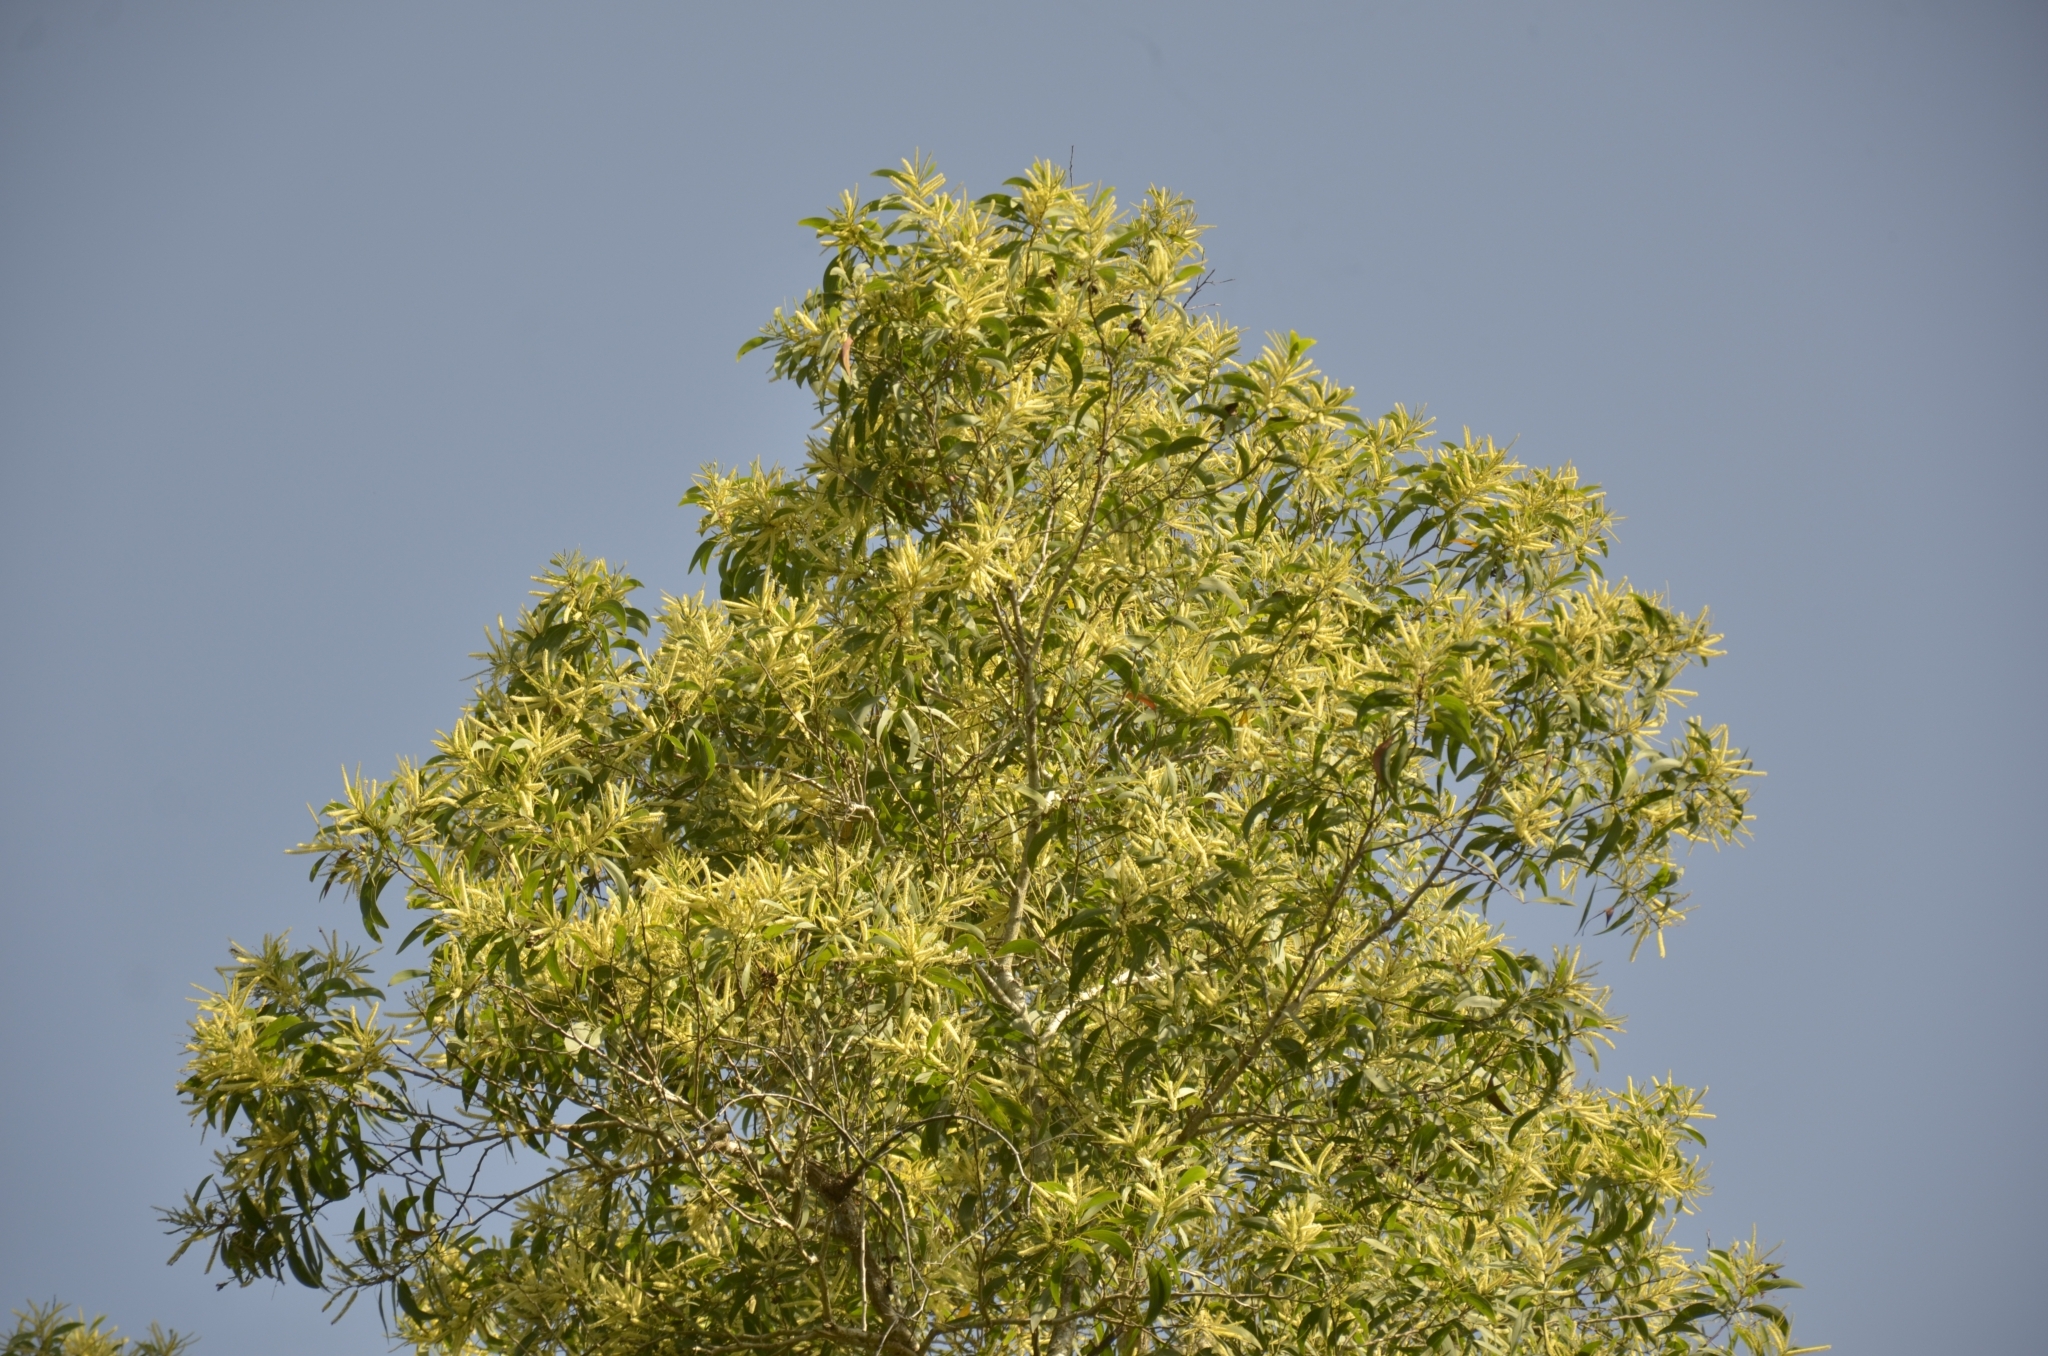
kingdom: Plantae
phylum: Tracheophyta
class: Magnoliopsida
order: Fabales
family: Fabaceae
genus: Acacia
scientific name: Acacia auriculiformis
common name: Earleaf acacia
